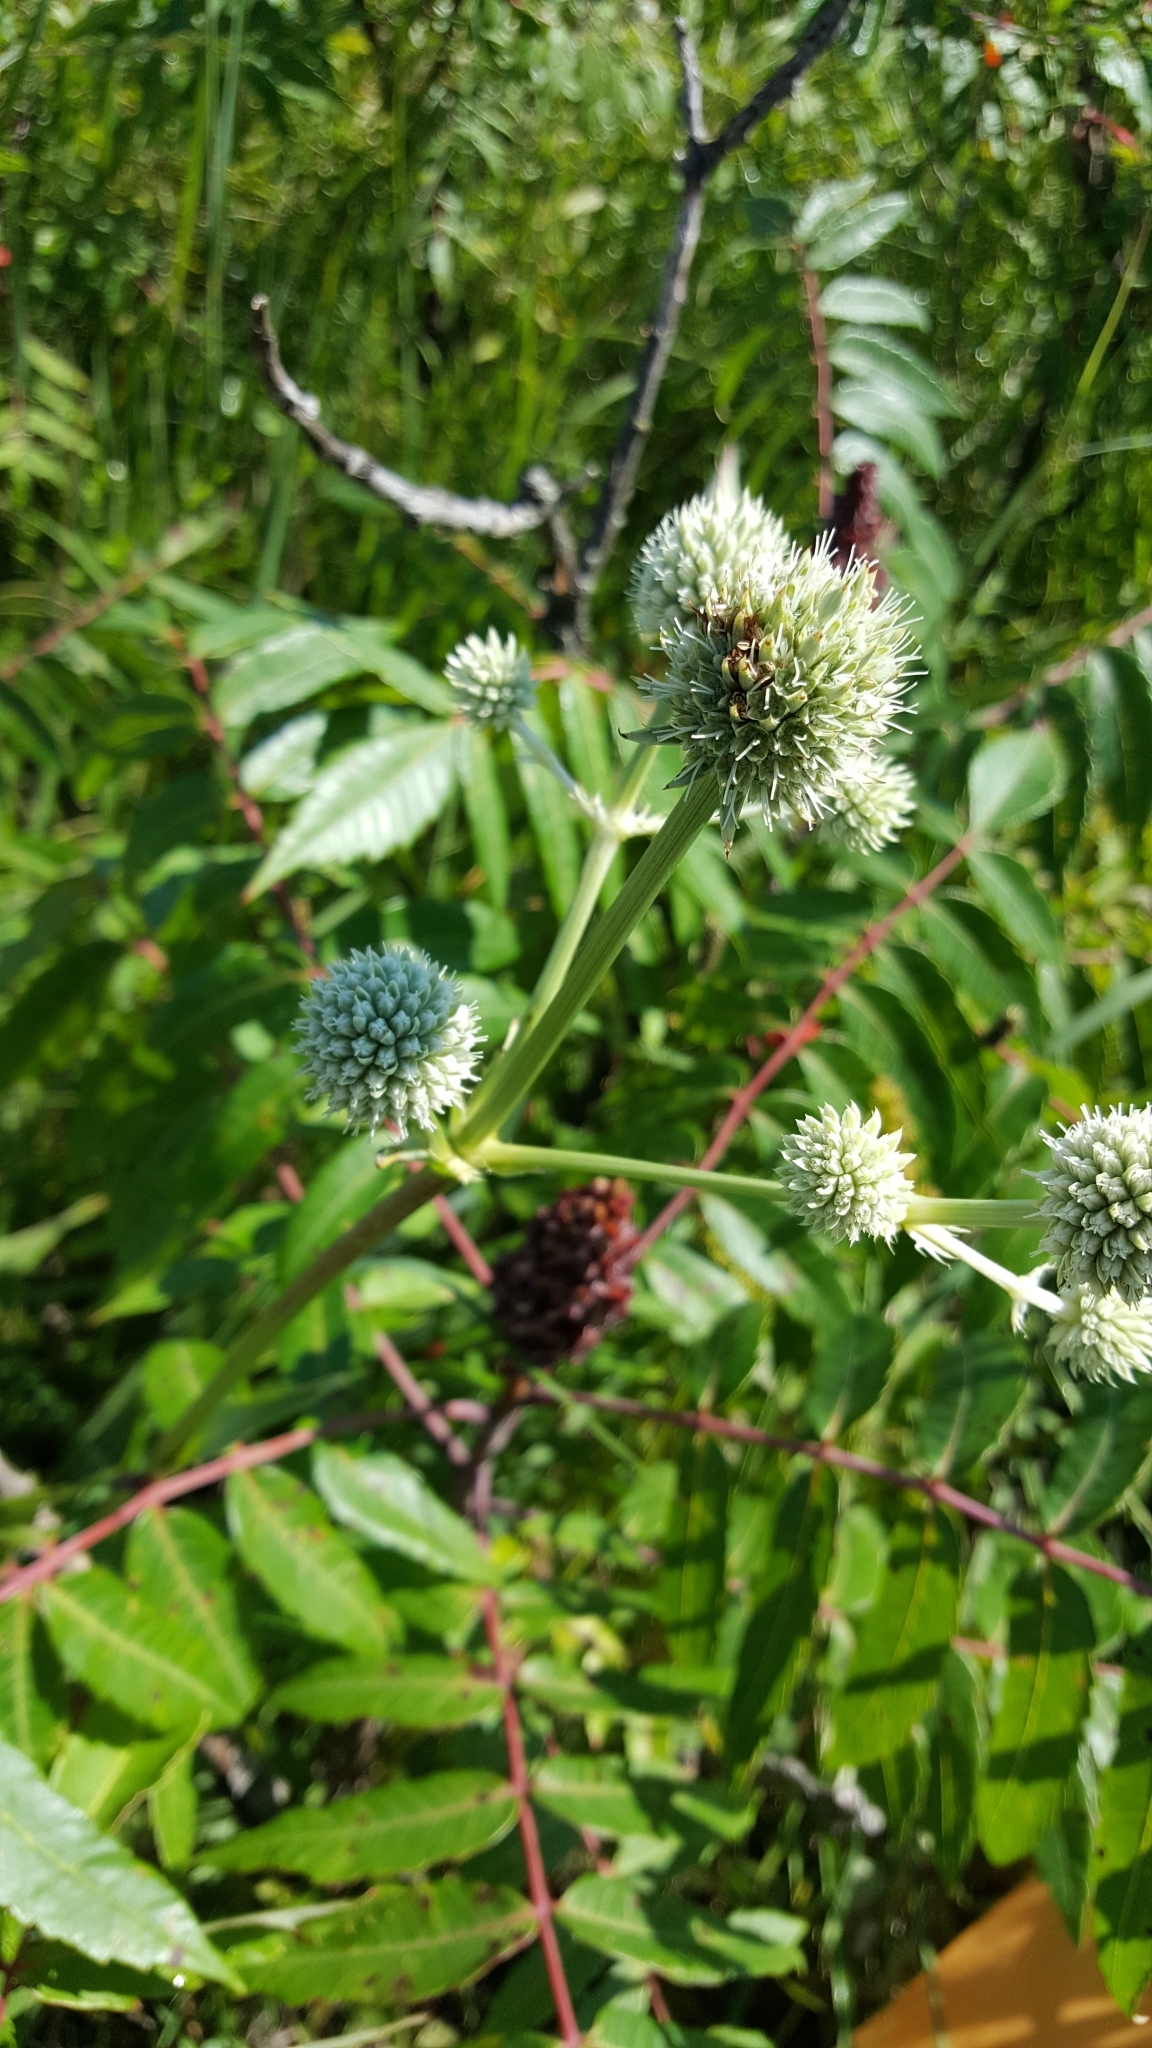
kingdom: Plantae
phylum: Tracheophyta
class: Magnoliopsida
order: Apiales
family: Apiaceae
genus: Eryngium
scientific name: Eryngium yuccifolium
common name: Button eryngo
